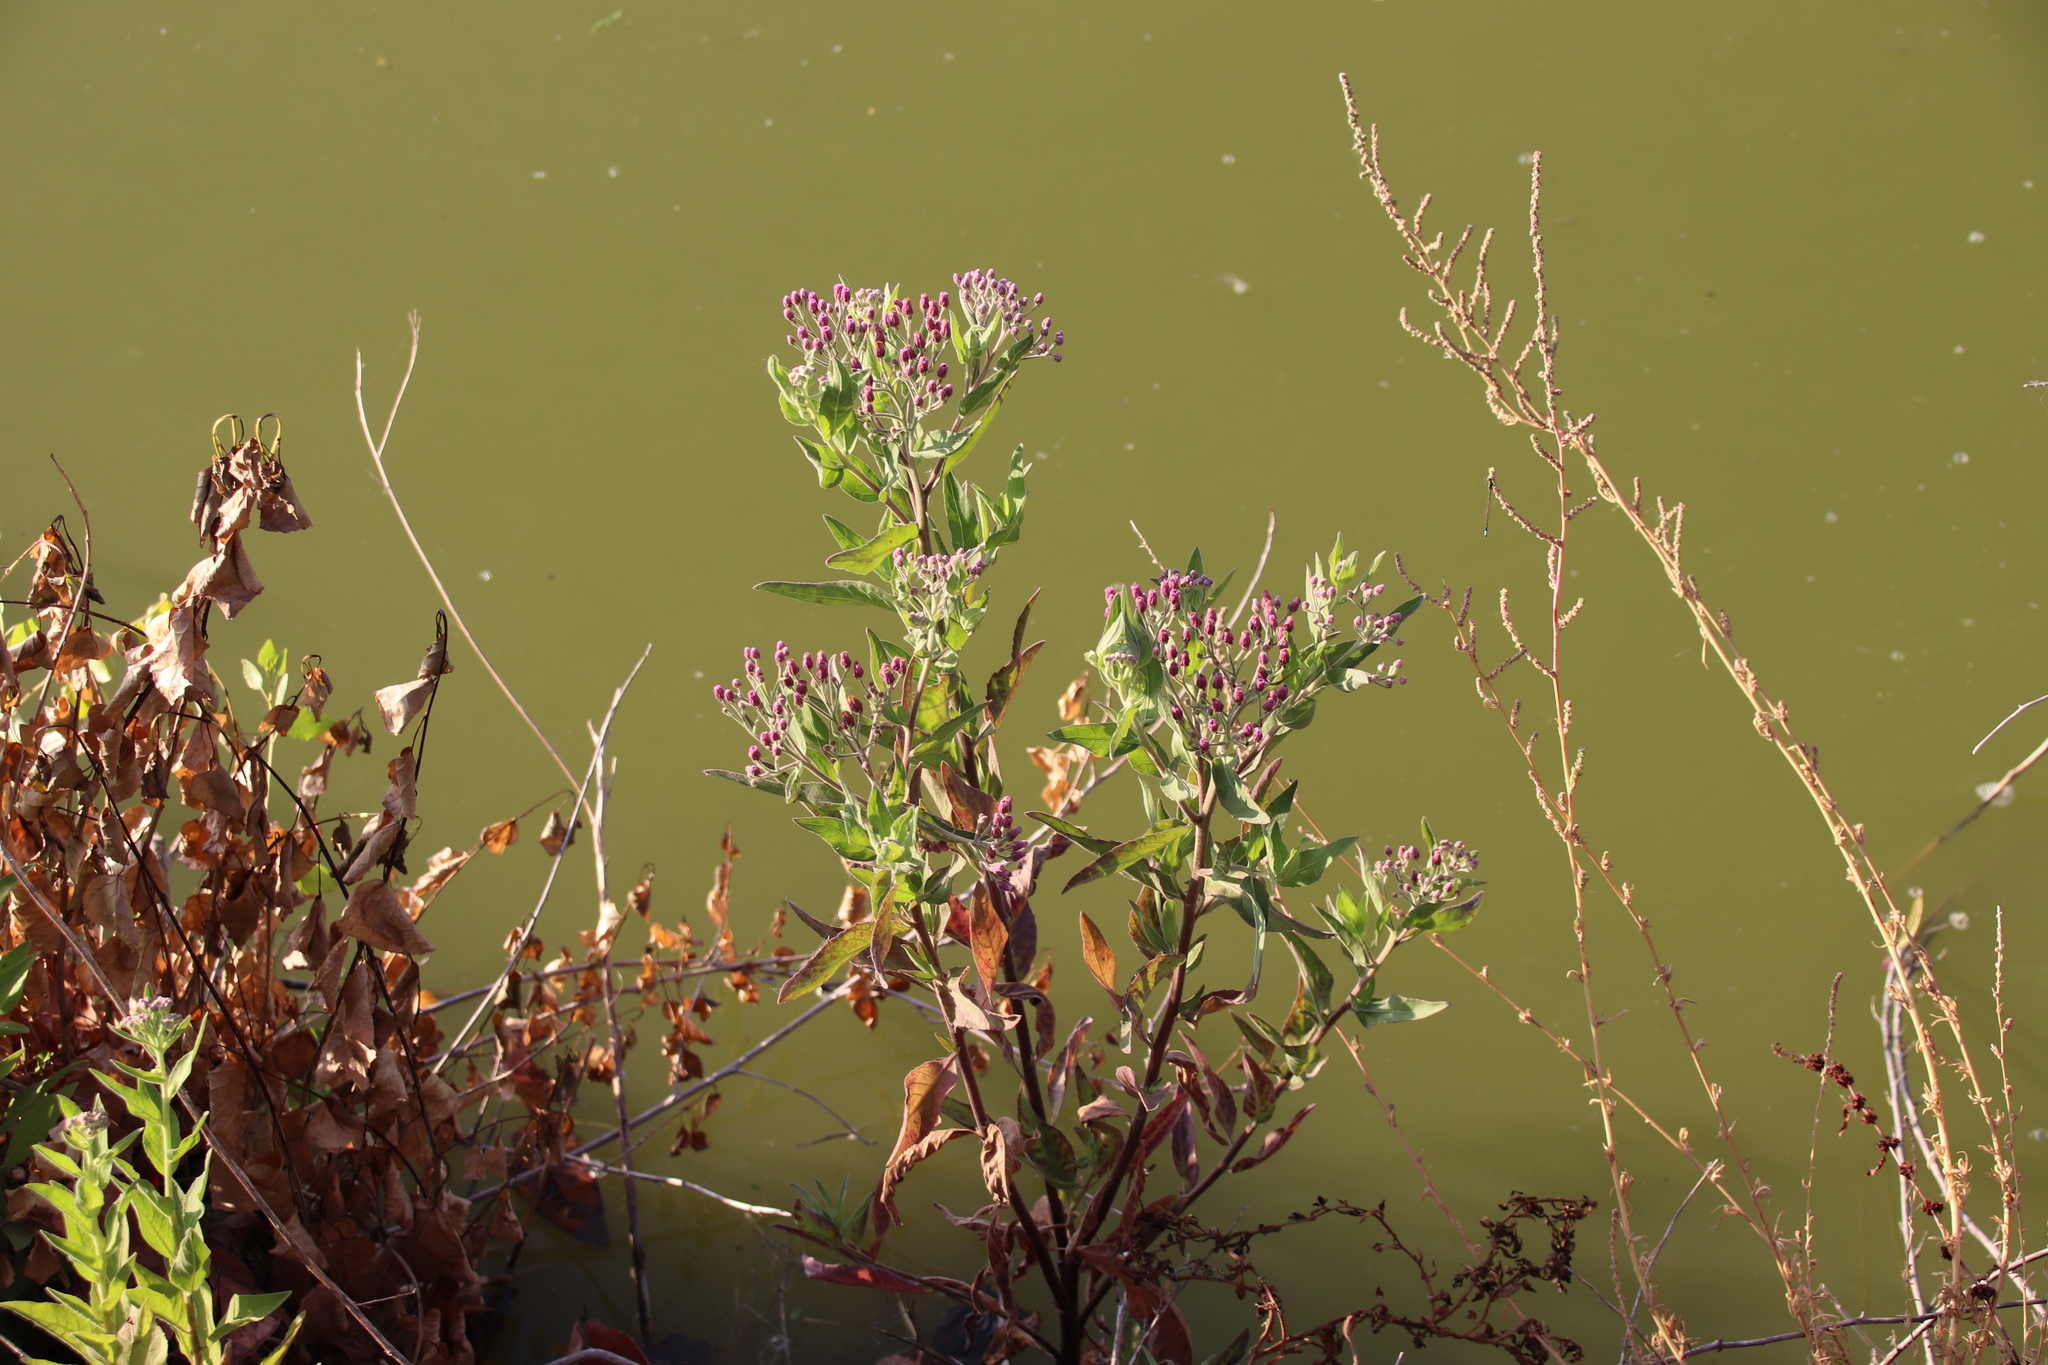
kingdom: Plantae
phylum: Tracheophyta
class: Magnoliopsida
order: Asterales
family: Asteraceae
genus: Pluchea
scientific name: Pluchea odorata
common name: Saltmarsh fleabane
